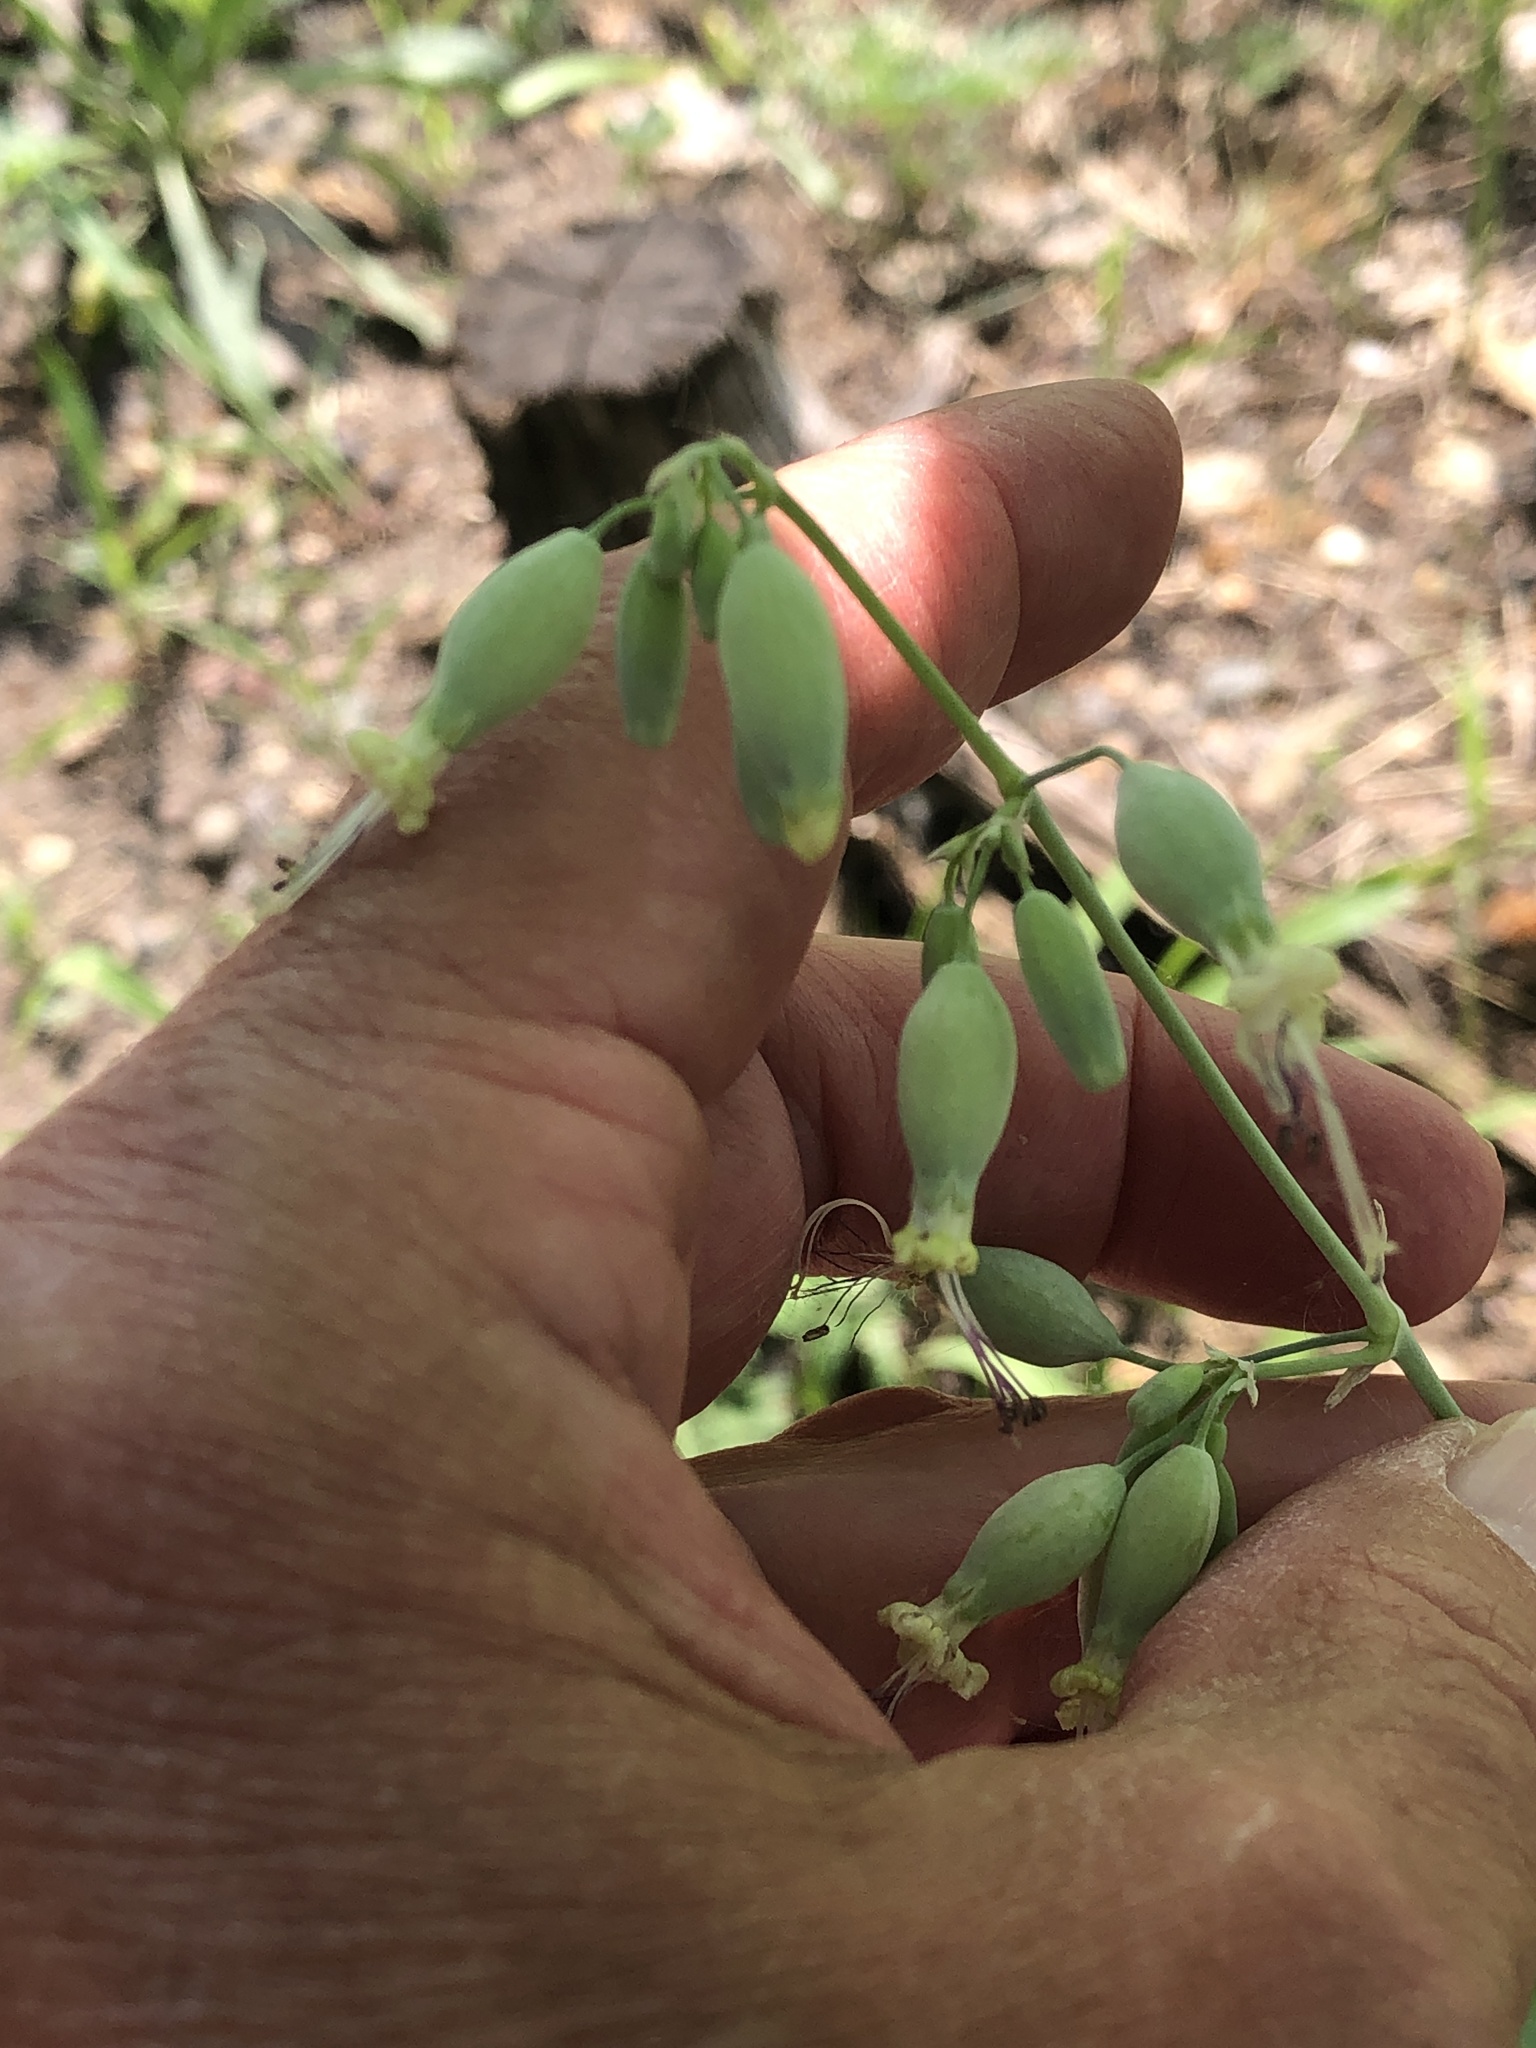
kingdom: Plantae
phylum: Tracheophyta
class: Magnoliopsida
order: Caryophyllales
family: Caryophyllaceae
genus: Silene
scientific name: Silene csereii
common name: Balkan catchfly
